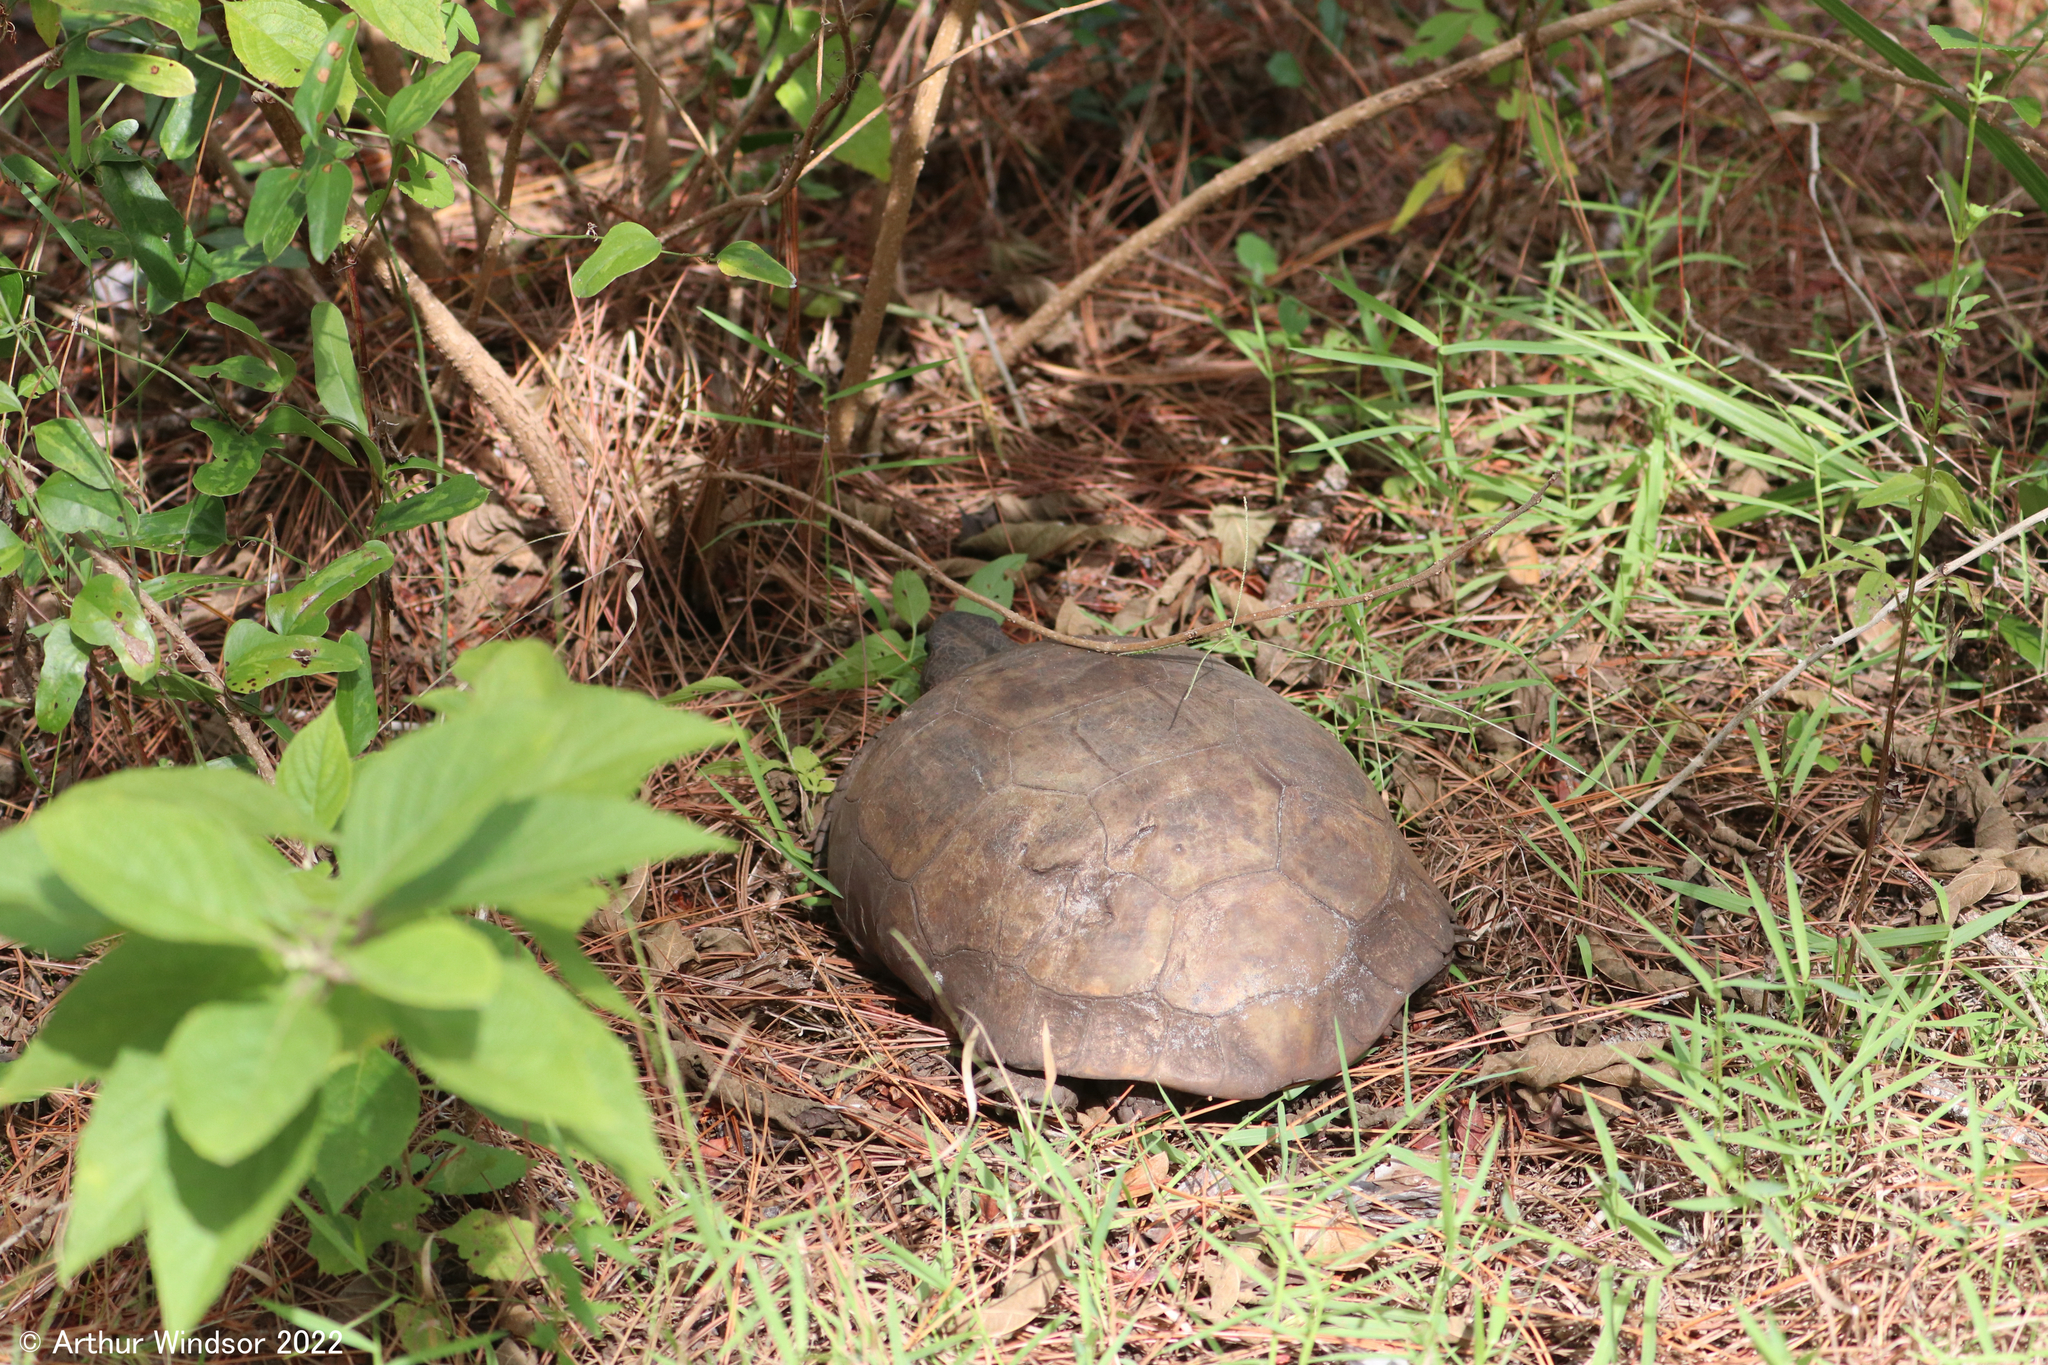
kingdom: Animalia
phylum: Chordata
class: Testudines
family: Testudinidae
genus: Gopherus
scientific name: Gopherus polyphemus
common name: Florida gopher tortoise
